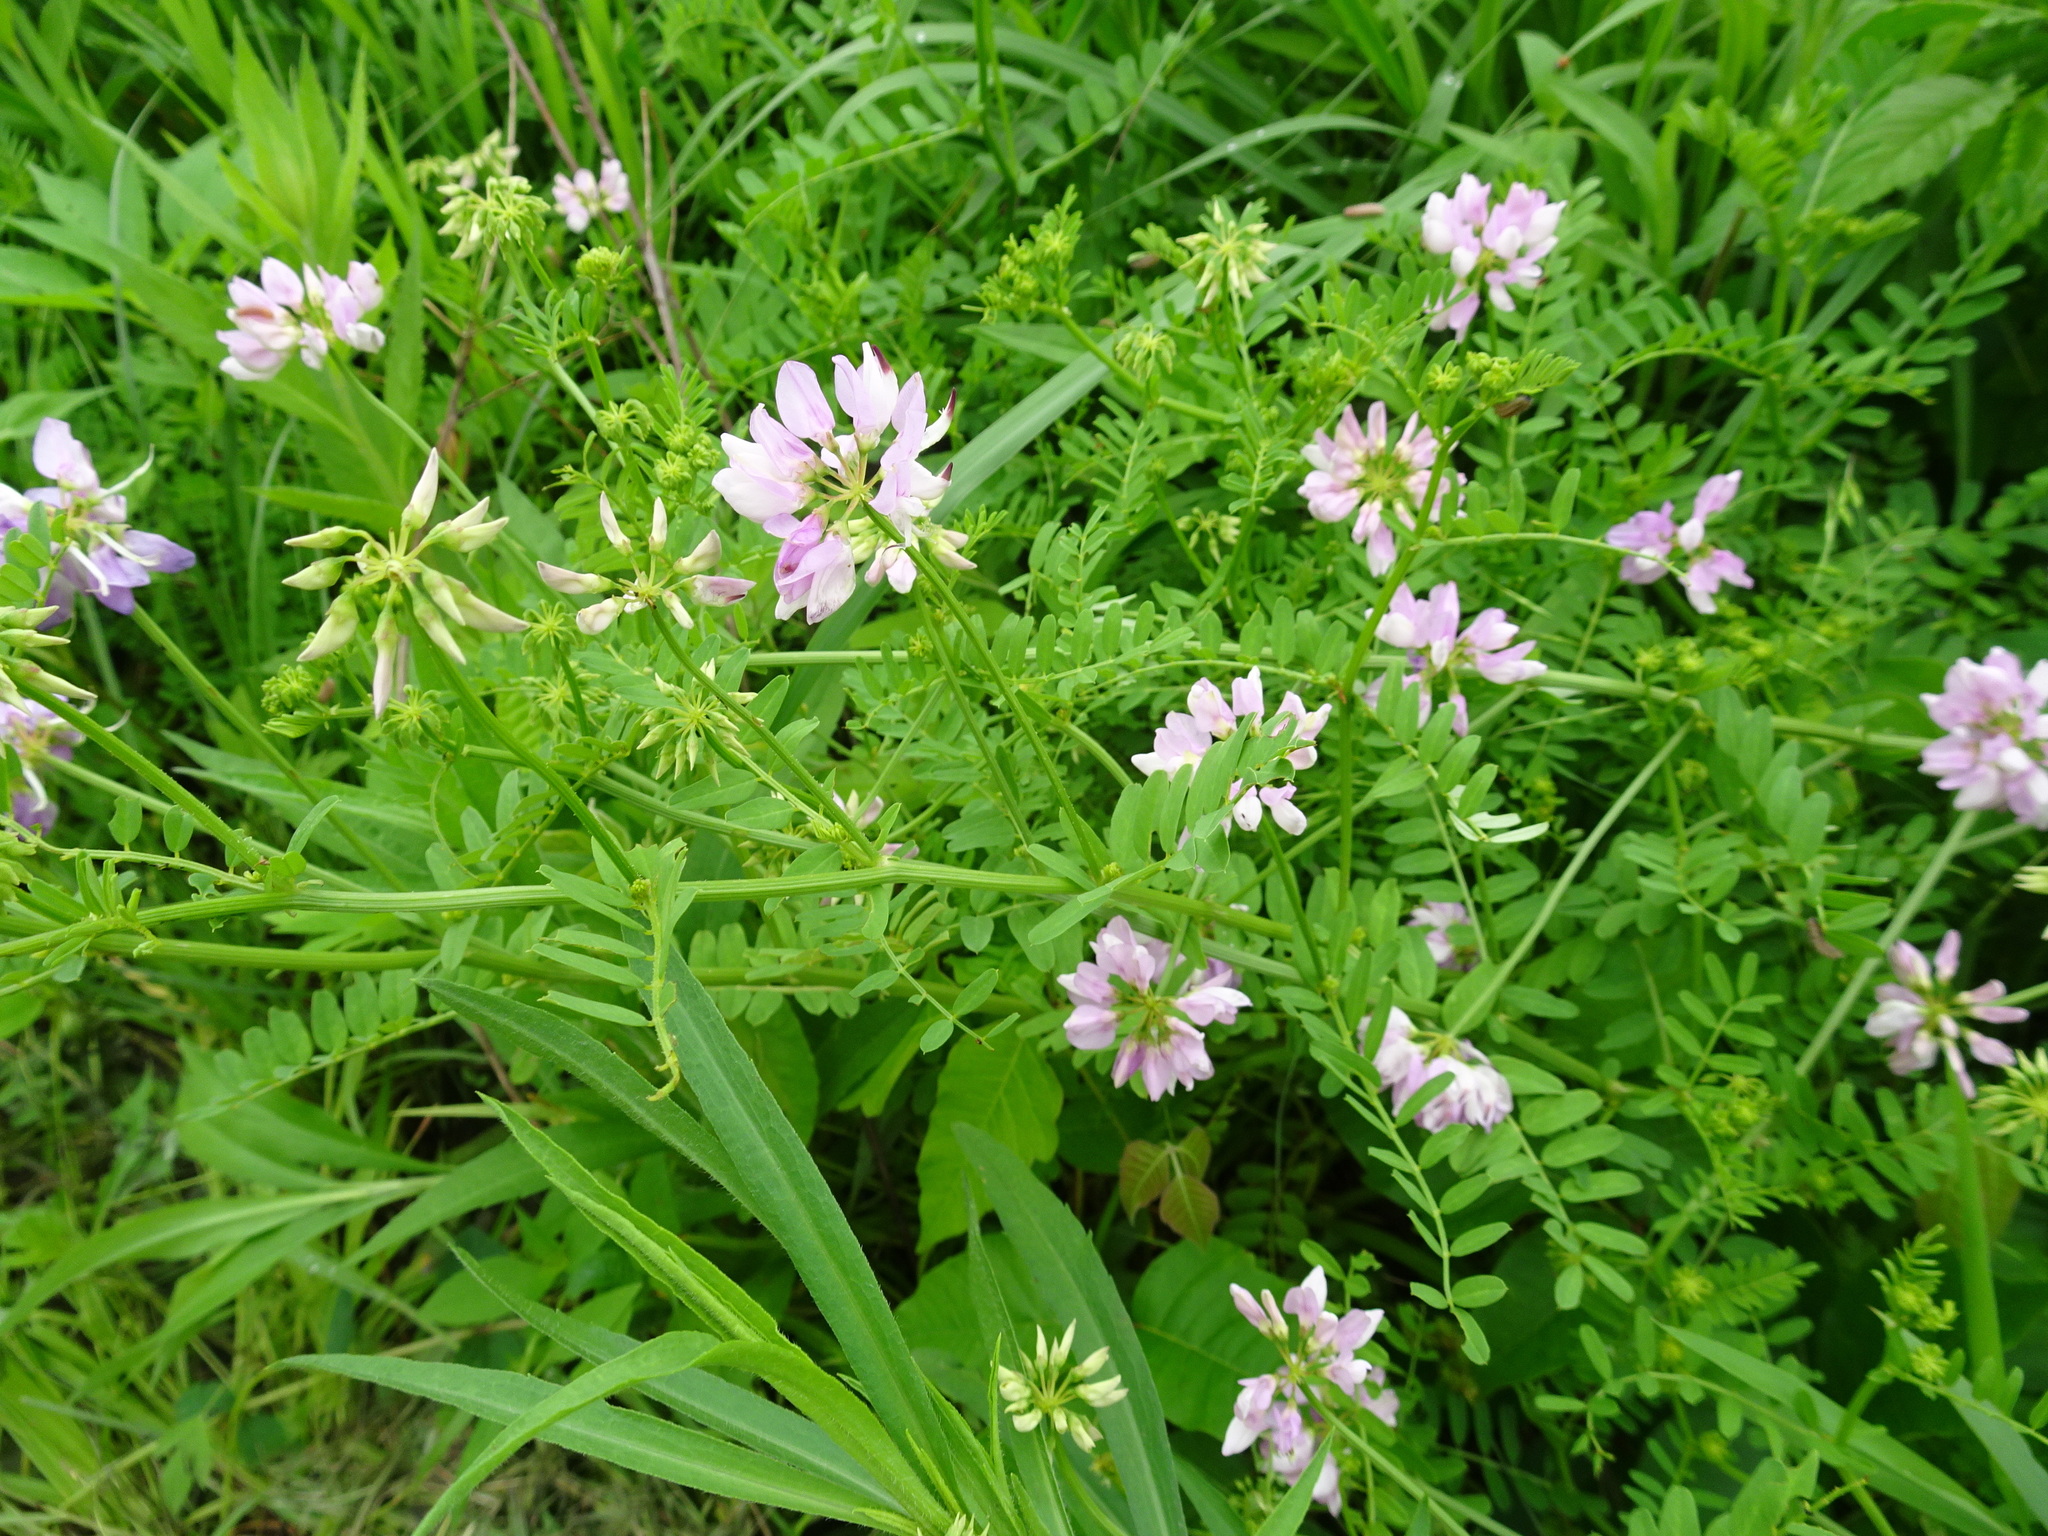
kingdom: Plantae
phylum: Tracheophyta
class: Magnoliopsida
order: Fabales
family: Fabaceae
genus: Coronilla
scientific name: Coronilla varia
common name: Crownvetch
